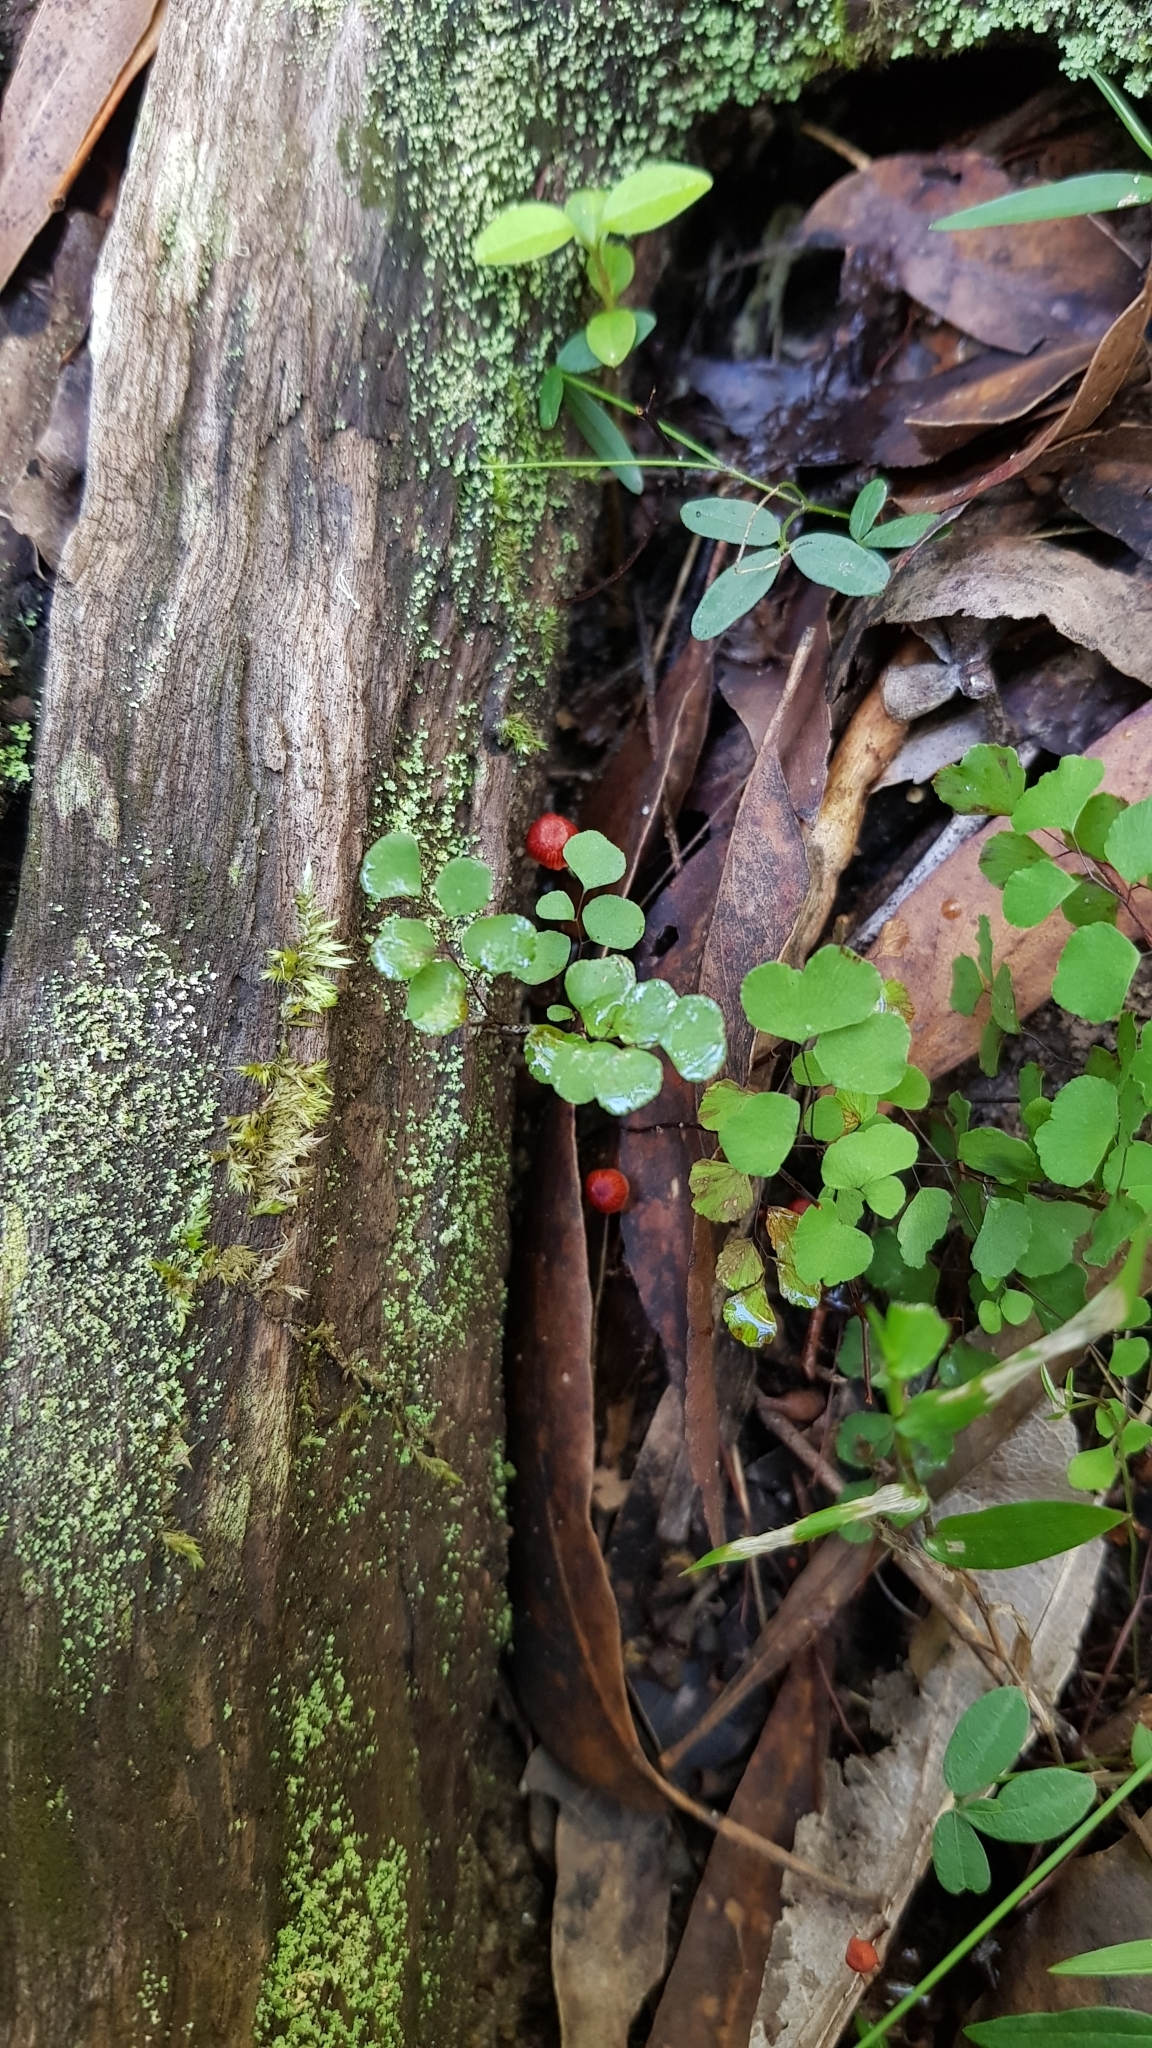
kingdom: Fungi
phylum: Basidiomycota
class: Agaricomycetes
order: Agaricales
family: Mycenaceae
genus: Cruentomycena
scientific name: Cruentomycena viscidocruenta
